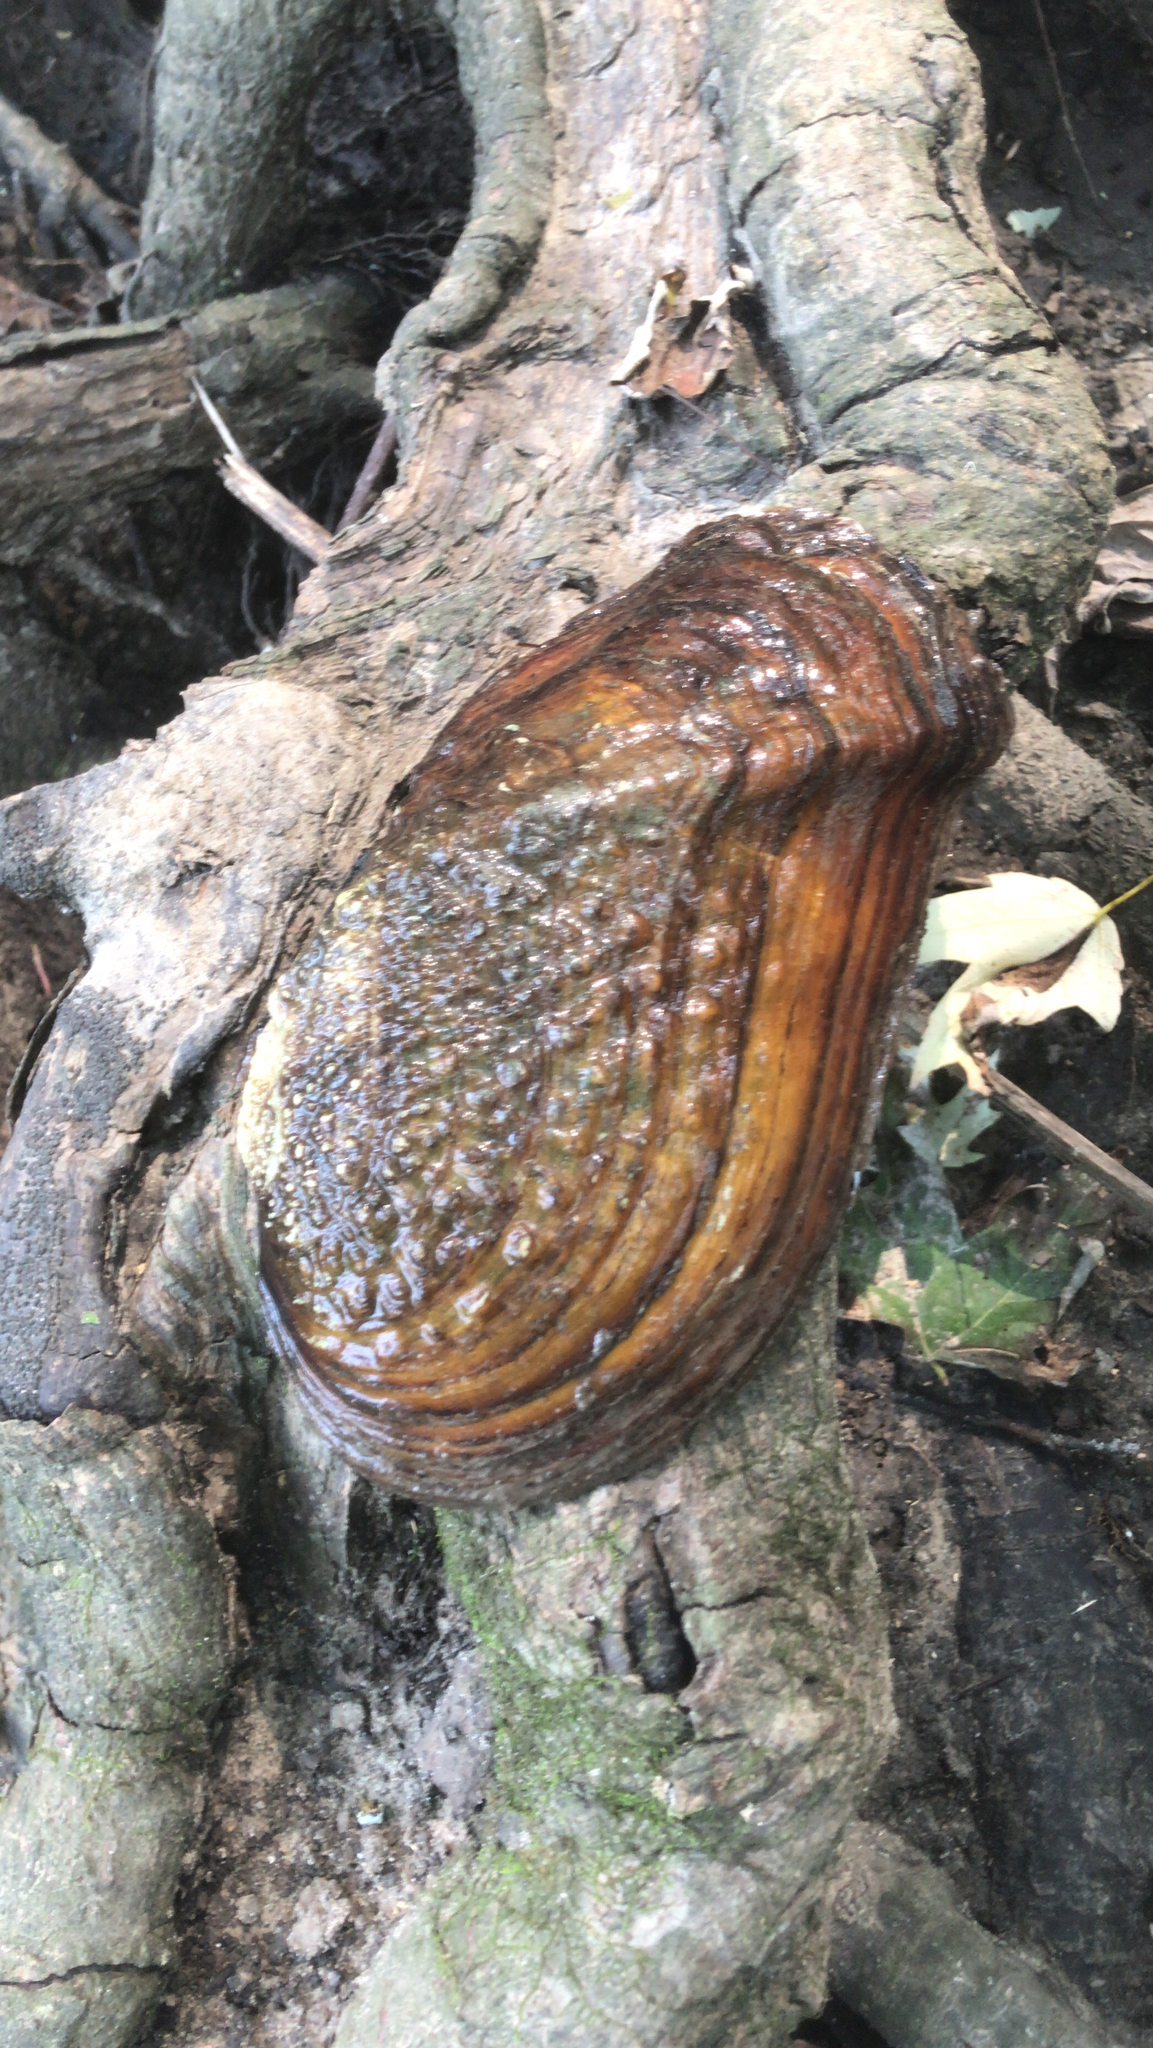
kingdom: Animalia
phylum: Mollusca
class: Bivalvia
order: Unionida
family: Unionidae
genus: Tritogonia
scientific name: Tritogonia verrucosa
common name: Pistolgrip
